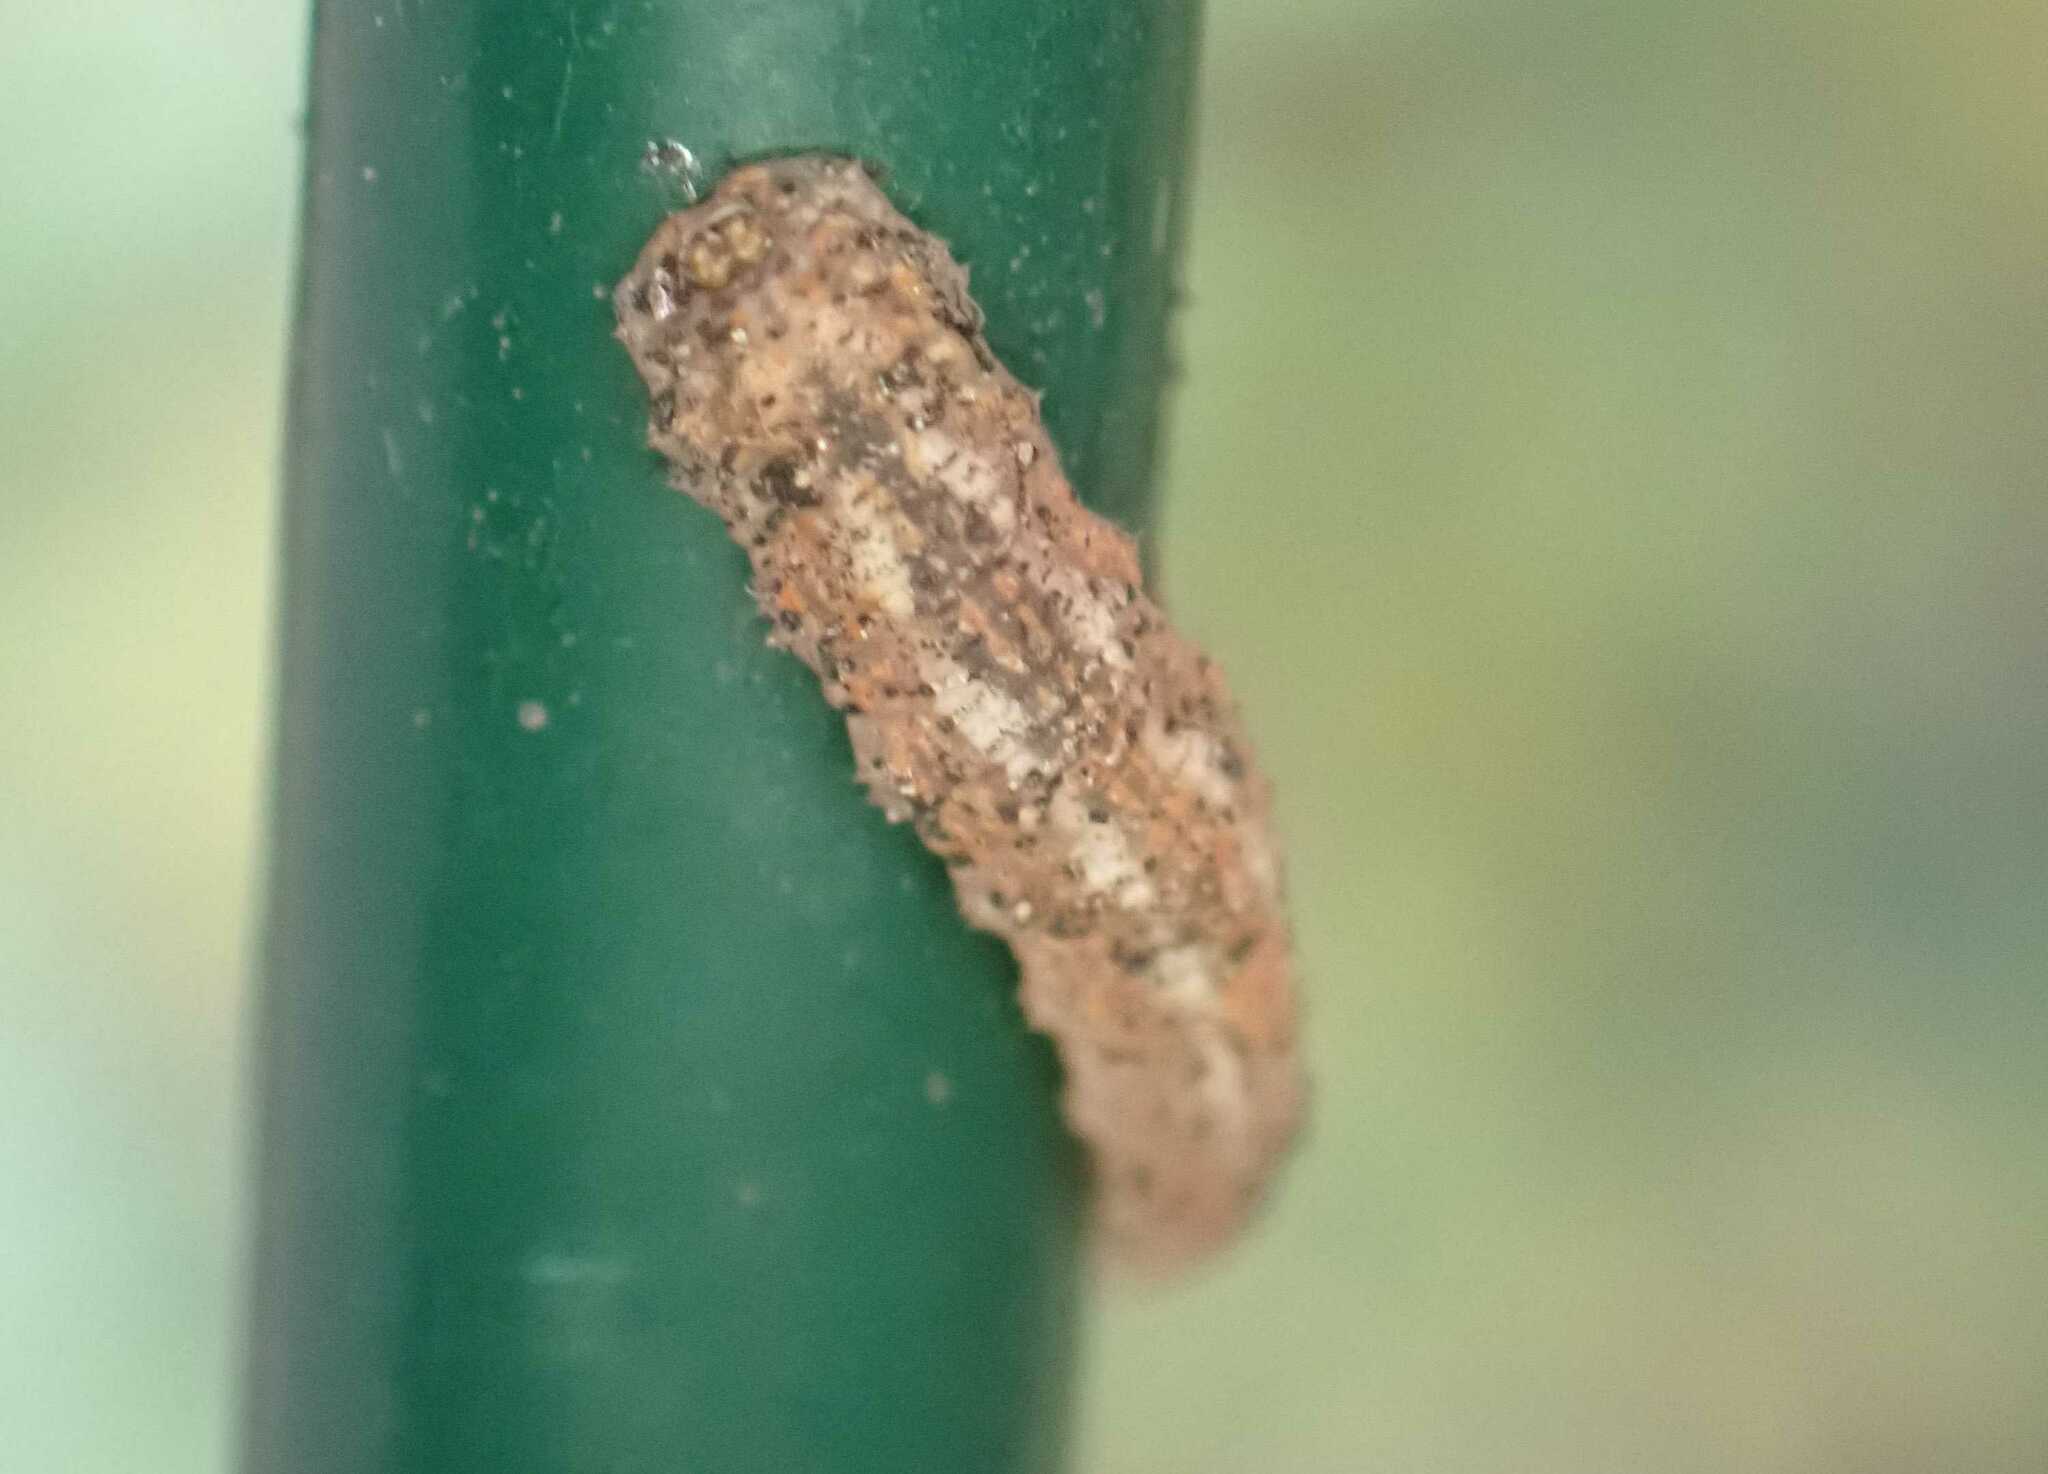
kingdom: Animalia
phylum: Arthropoda
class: Insecta
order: Diptera
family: Syrphidae
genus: Syrphus
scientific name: Syrphus
